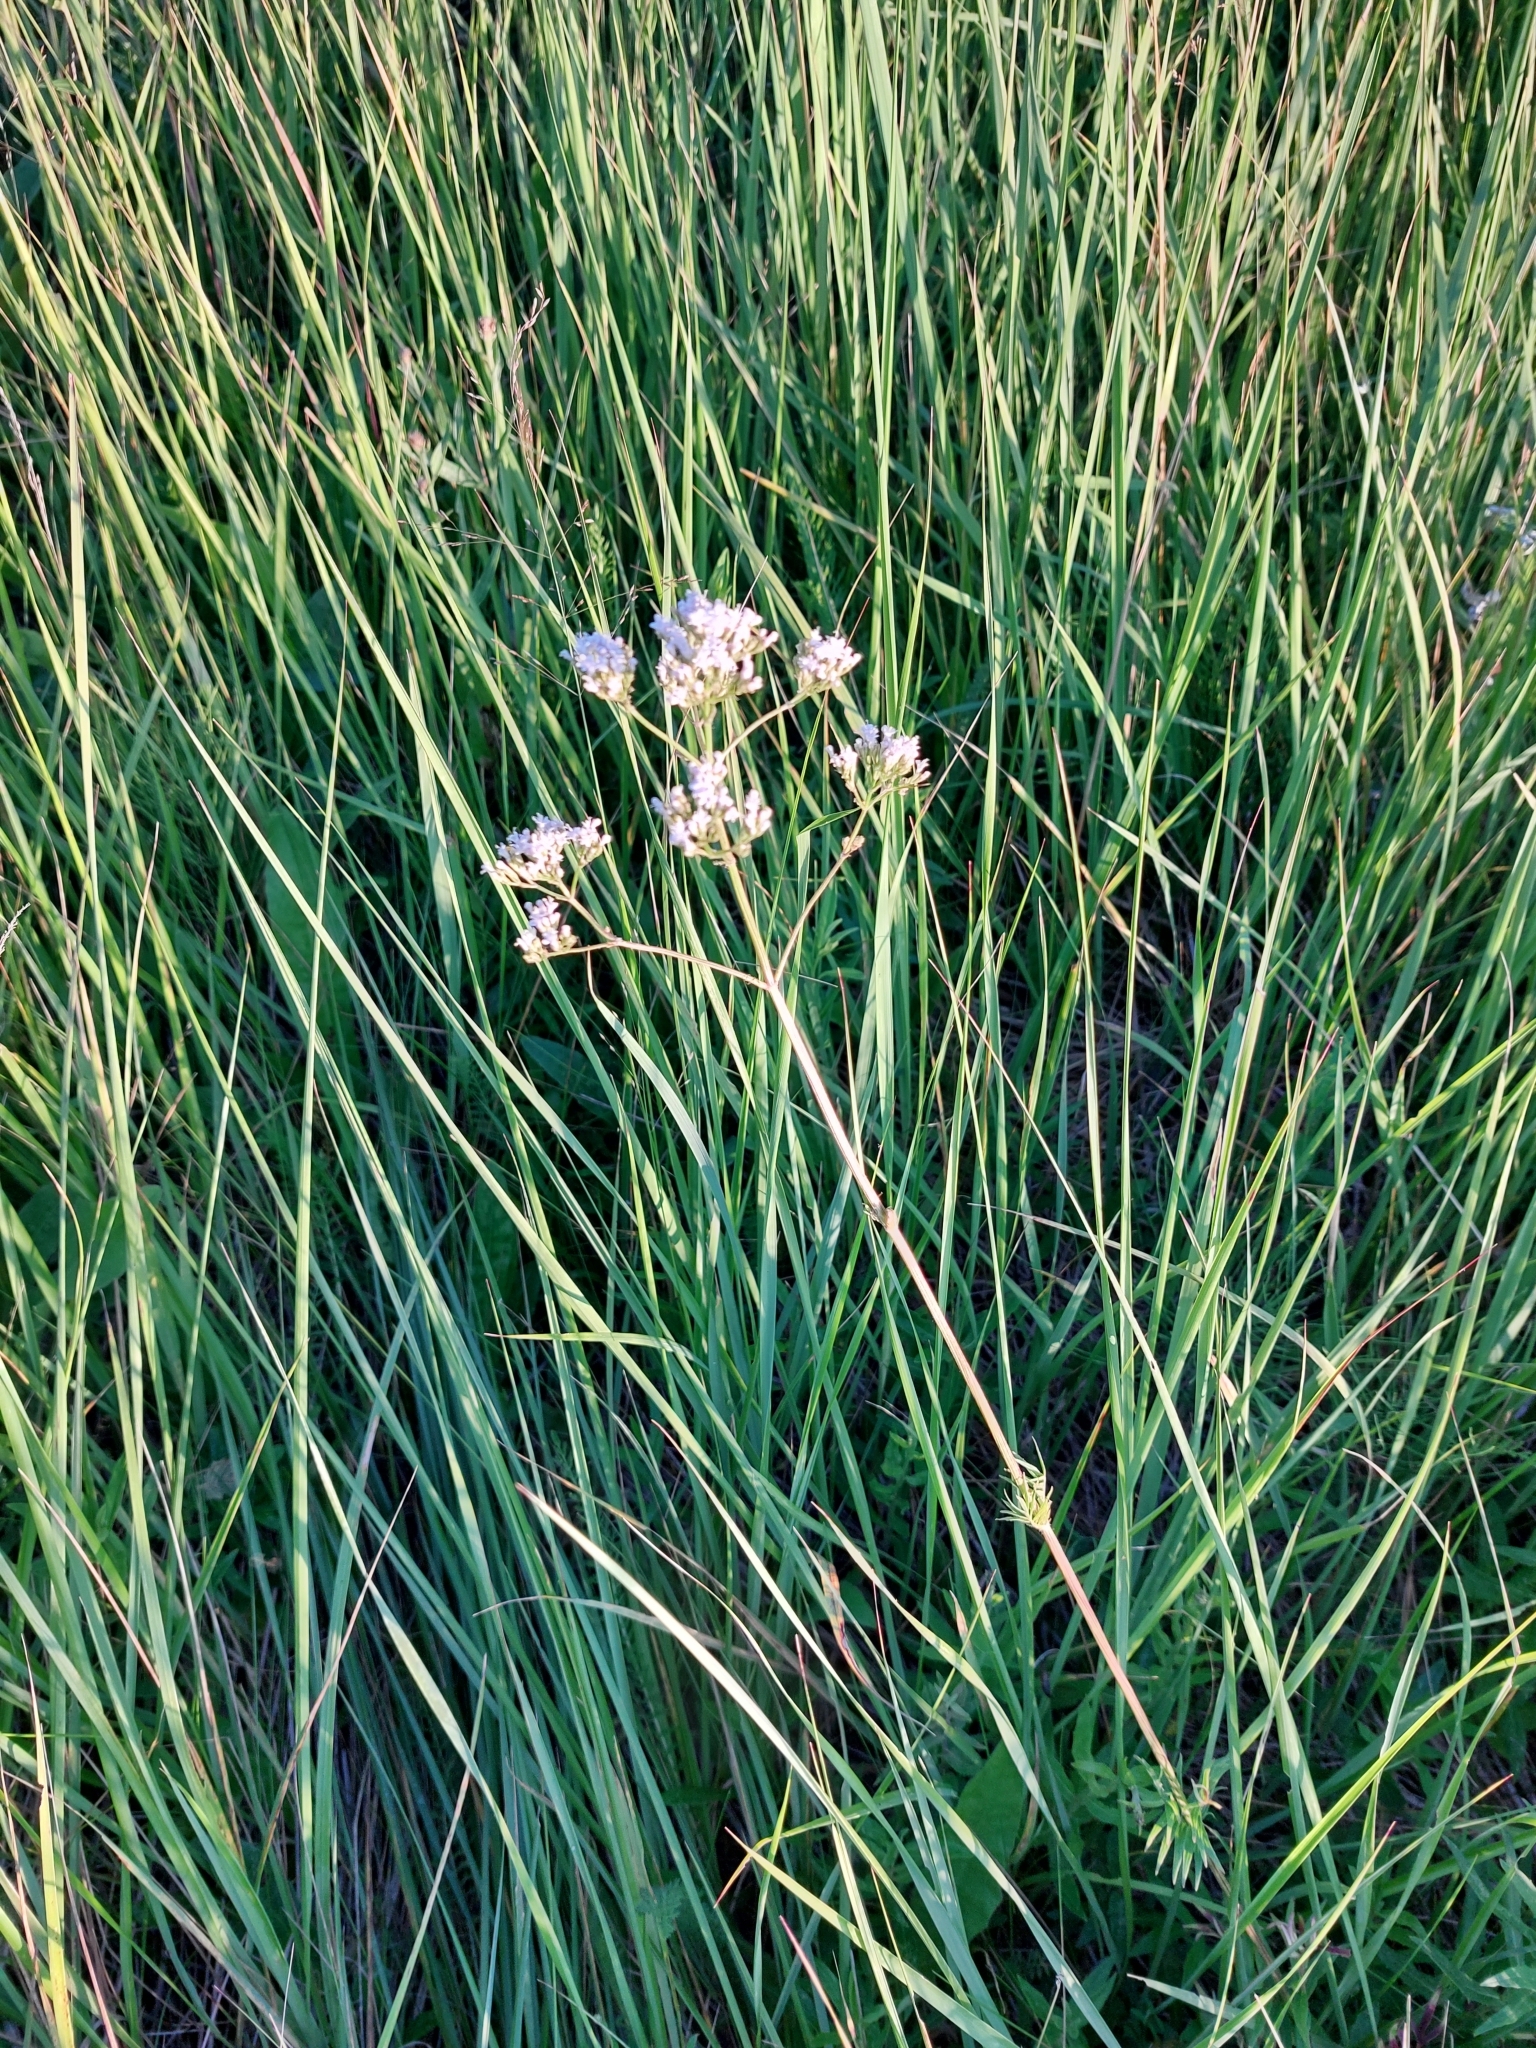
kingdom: Plantae
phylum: Tracheophyta
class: Magnoliopsida
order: Dipsacales
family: Caprifoliaceae
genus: Valeriana
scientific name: Valeriana officinalis
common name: Common valerian
